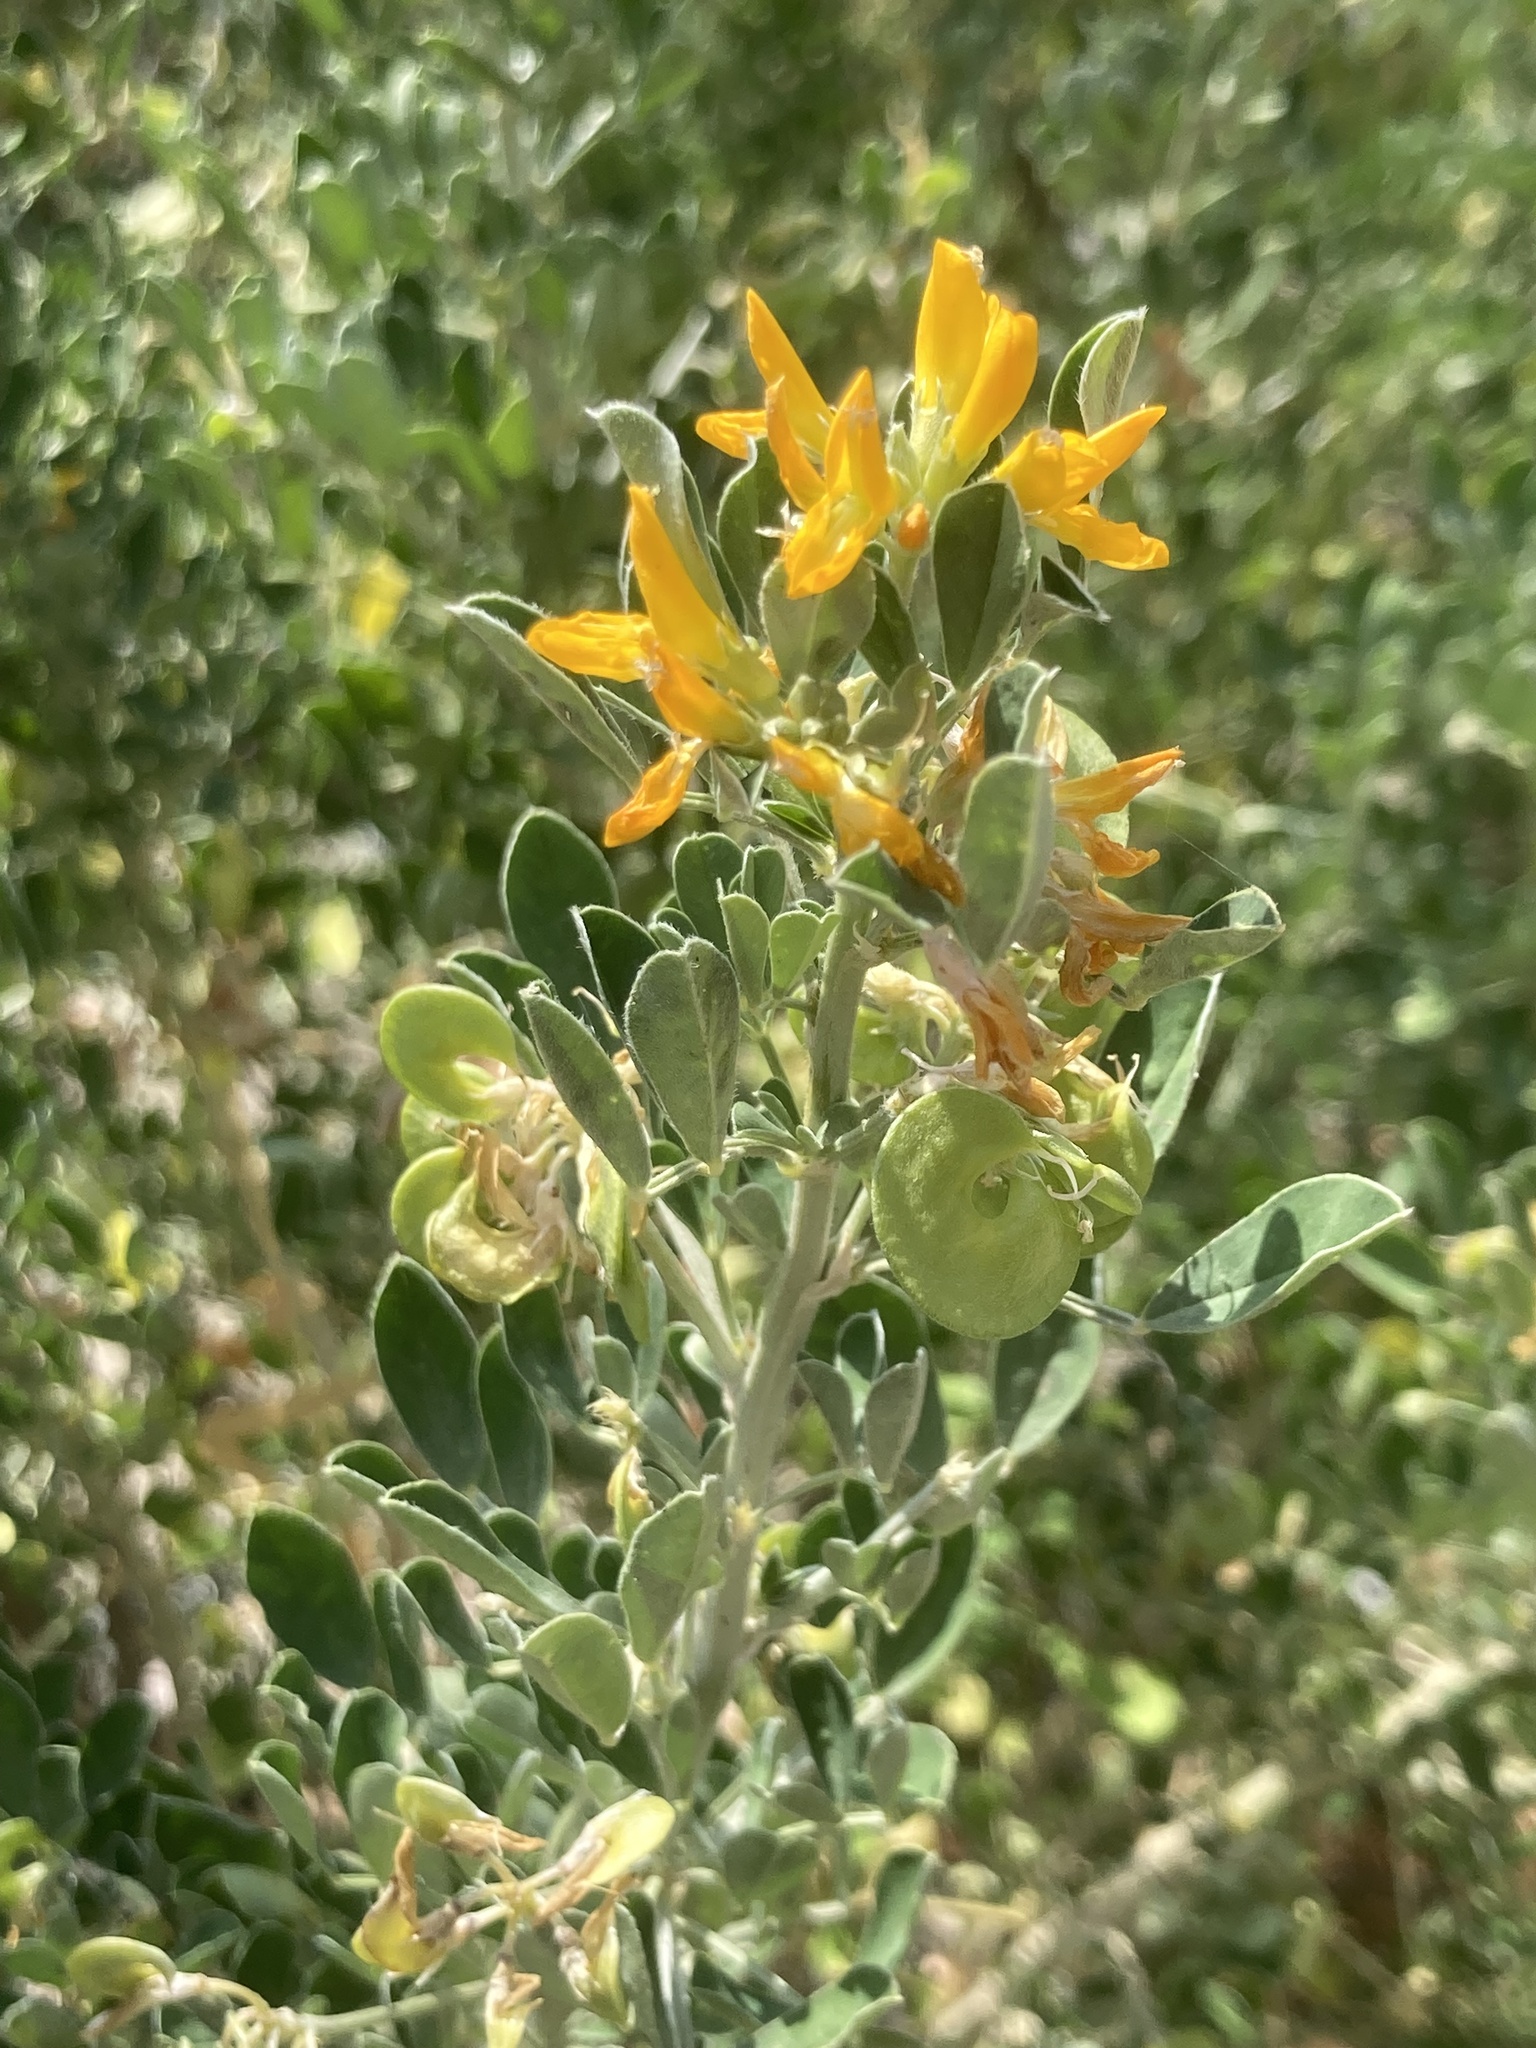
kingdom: Plantae
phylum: Tracheophyta
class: Magnoliopsida
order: Fabales
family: Fabaceae
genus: Medicago
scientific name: Medicago arborea
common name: Moon trefoil
